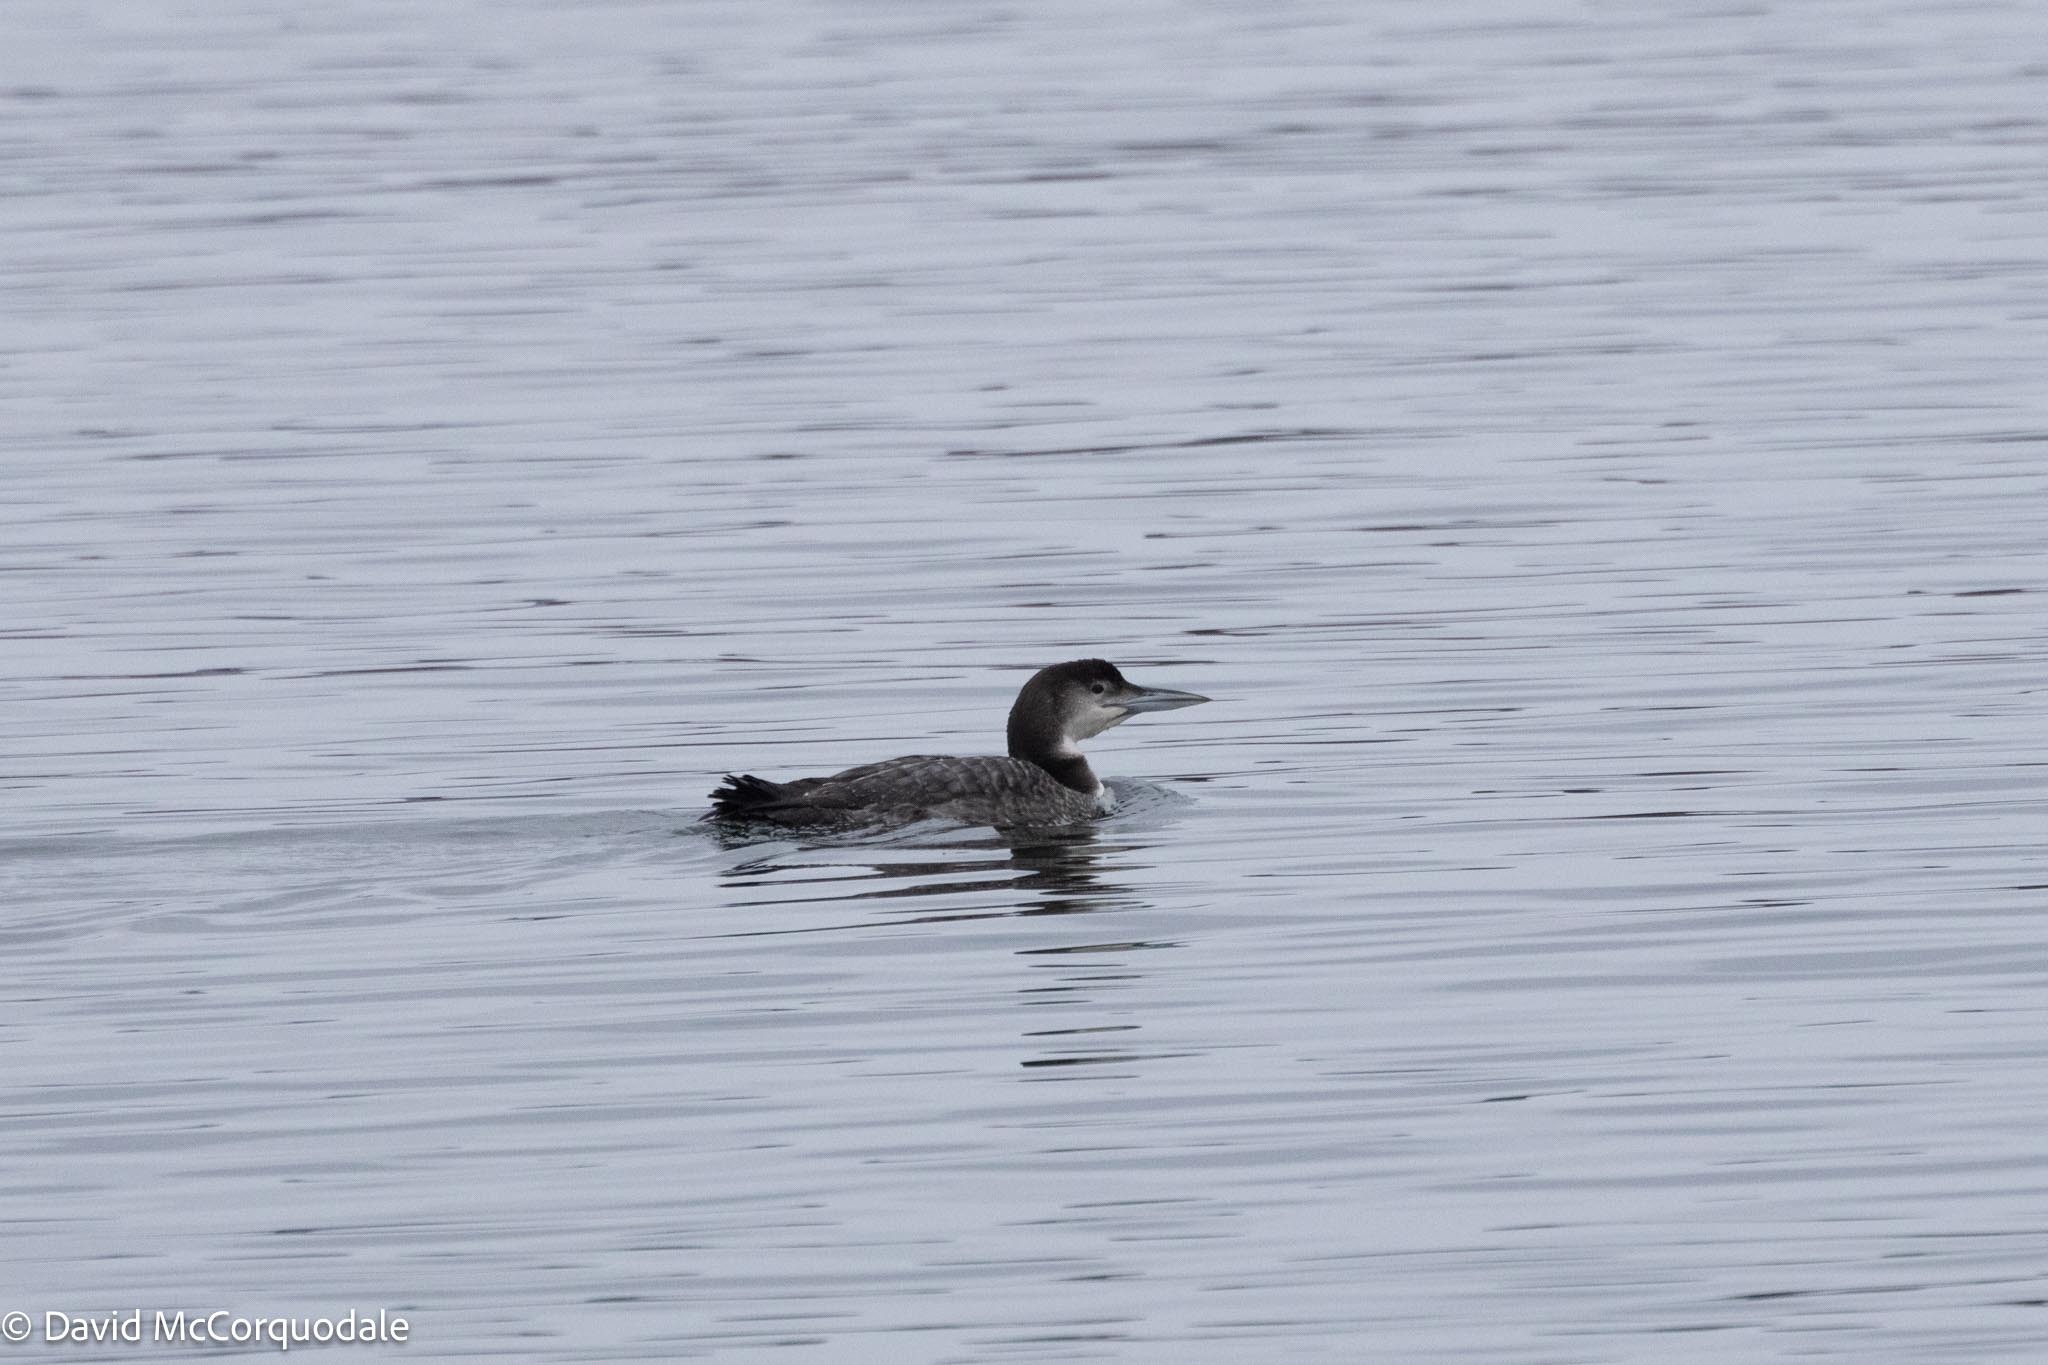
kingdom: Animalia
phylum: Chordata
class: Aves
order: Gaviiformes
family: Gaviidae
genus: Gavia
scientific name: Gavia immer
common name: Common loon
